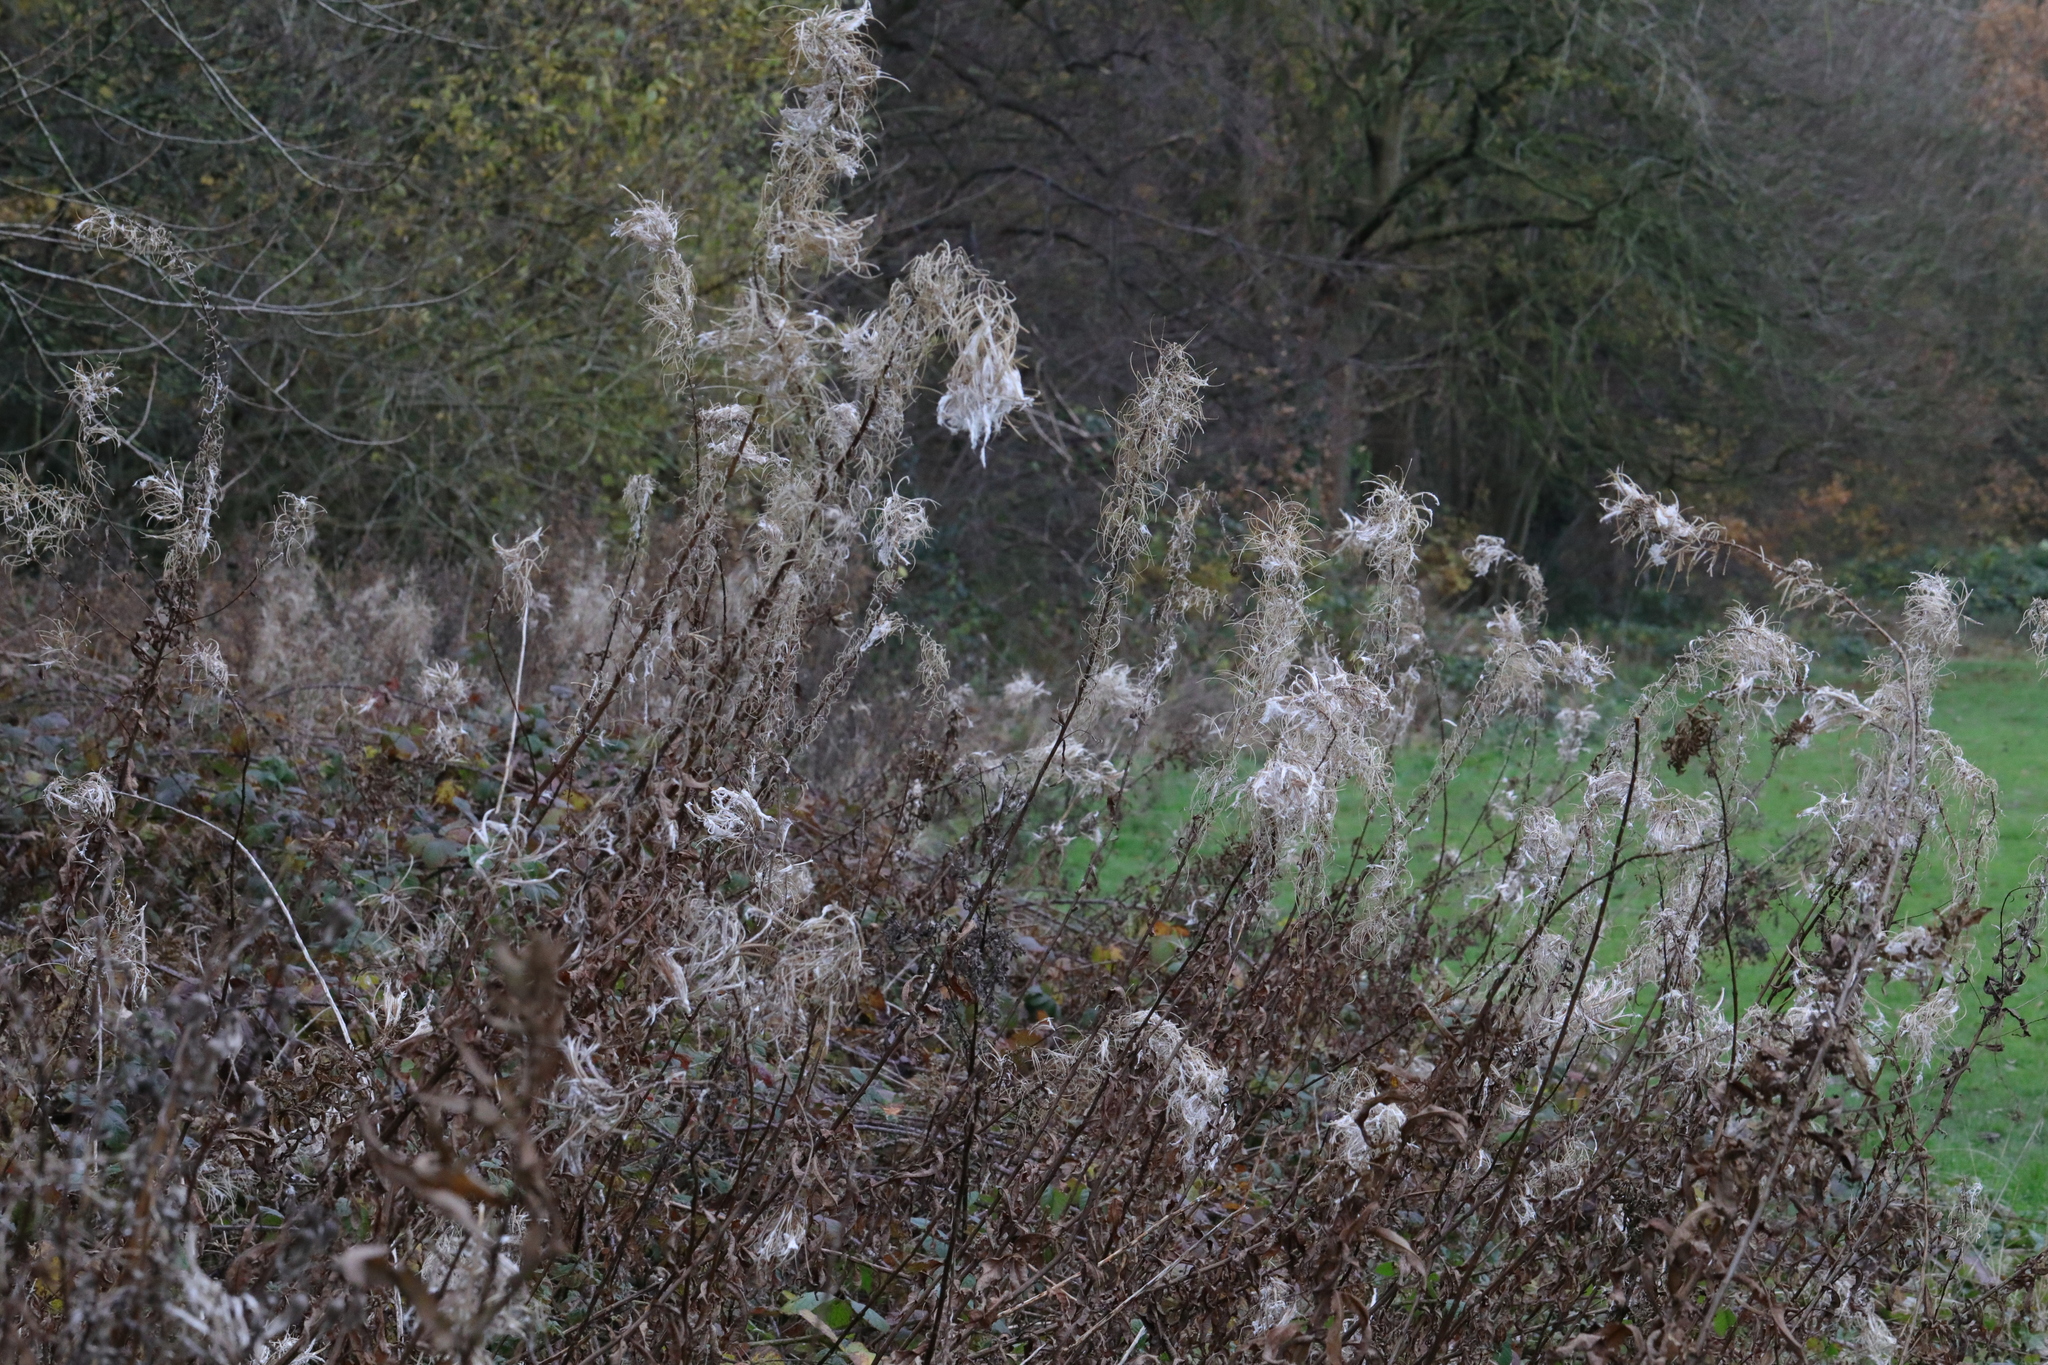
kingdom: Plantae
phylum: Tracheophyta
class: Magnoliopsida
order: Myrtales
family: Onagraceae
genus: Chamaenerion
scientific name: Chamaenerion angustifolium
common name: Fireweed
